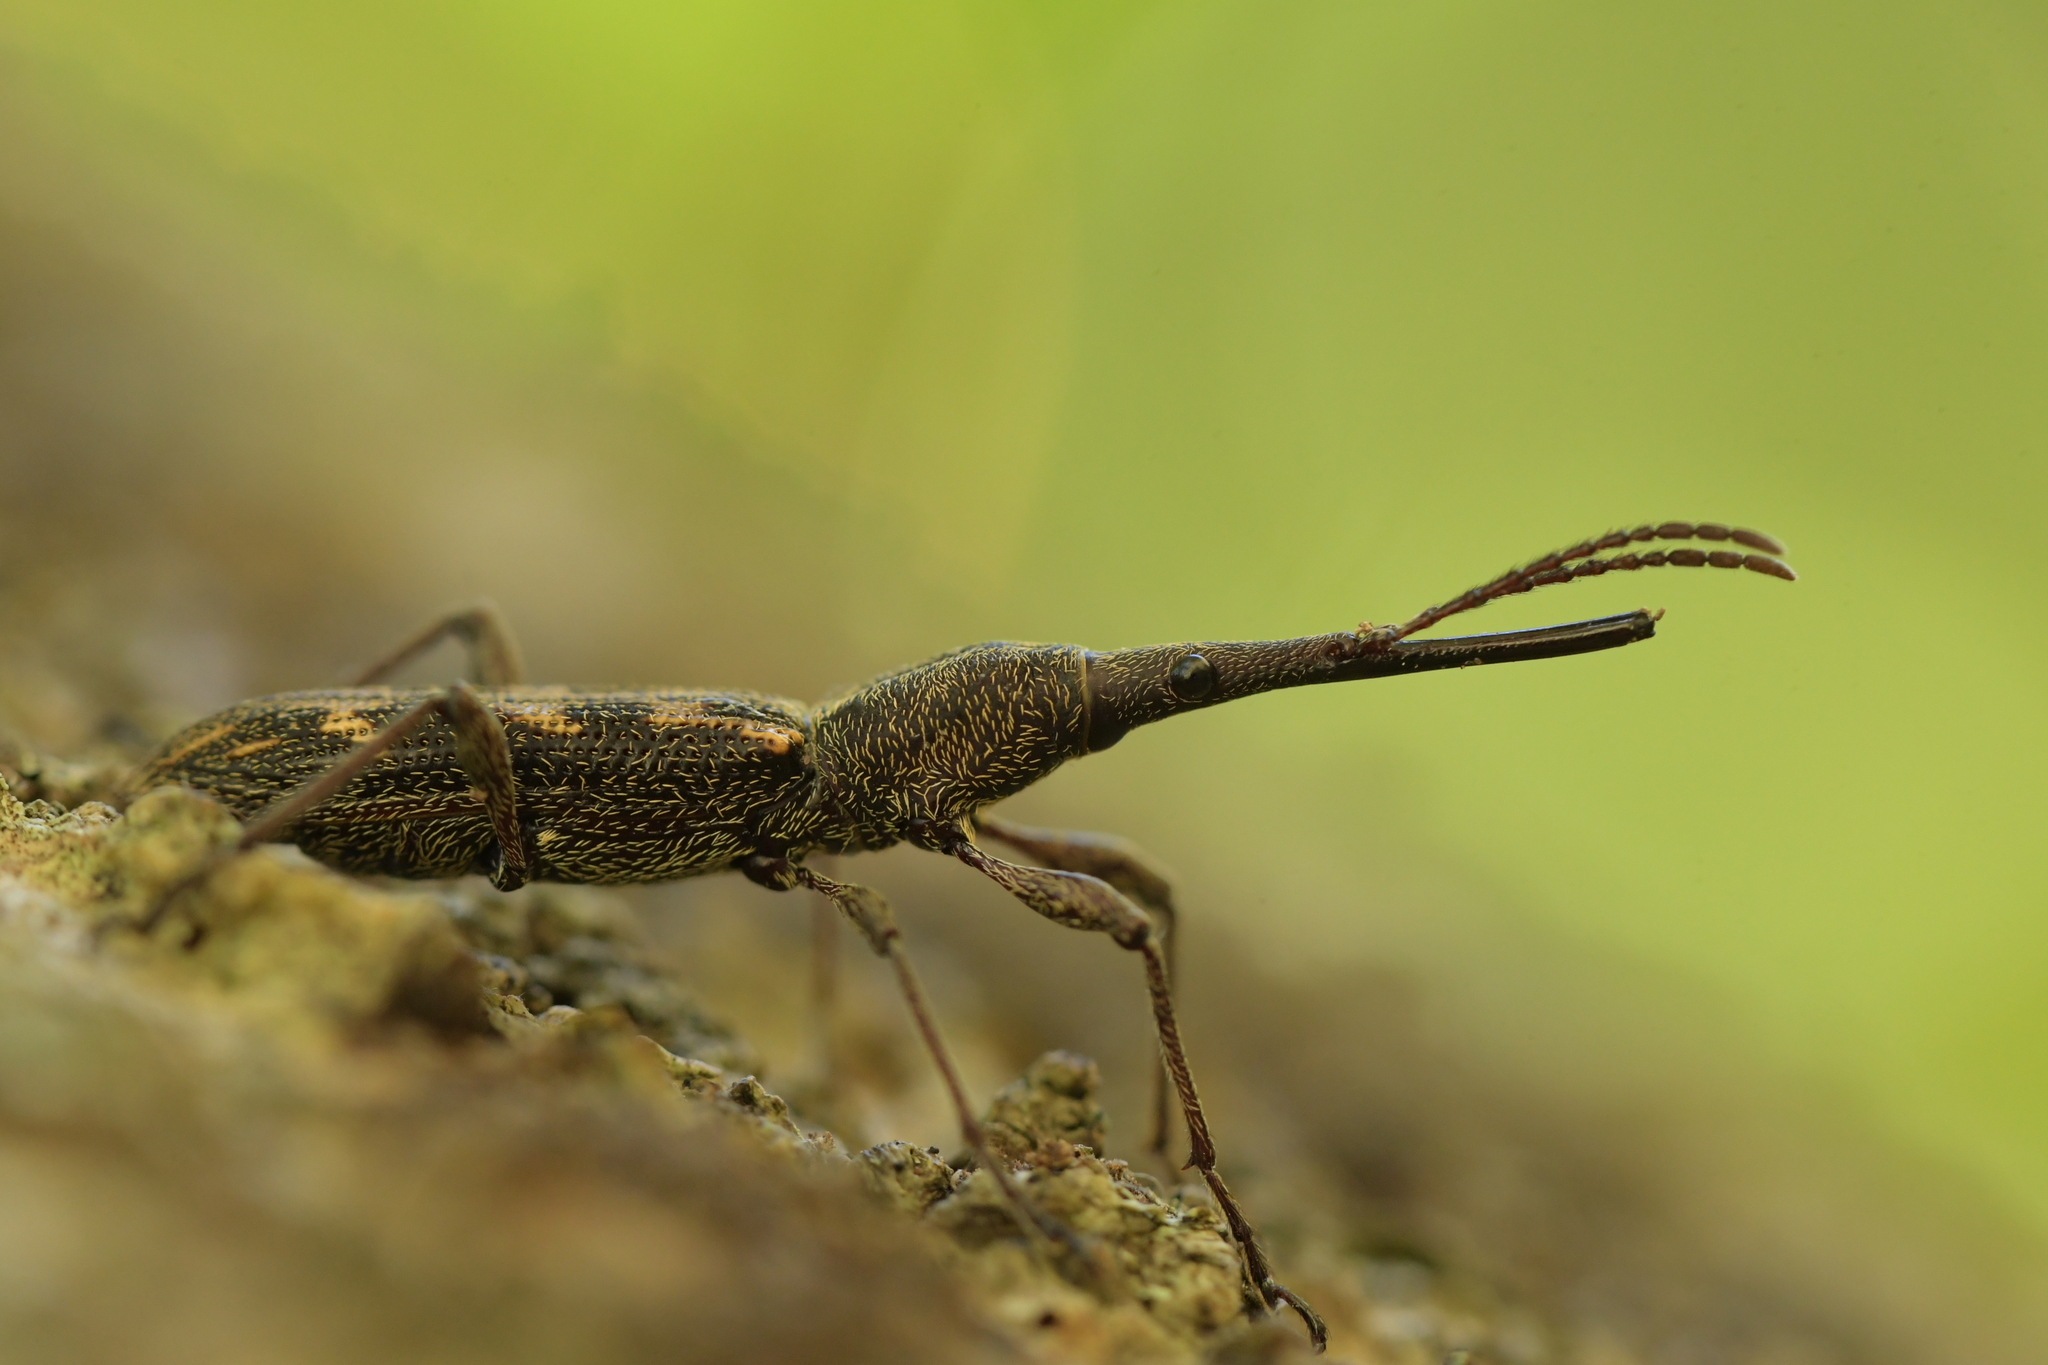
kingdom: Animalia
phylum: Arthropoda
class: Insecta
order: Coleoptera
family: Brentidae
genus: Lasiorhynchus
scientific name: Lasiorhynchus barbicornis
